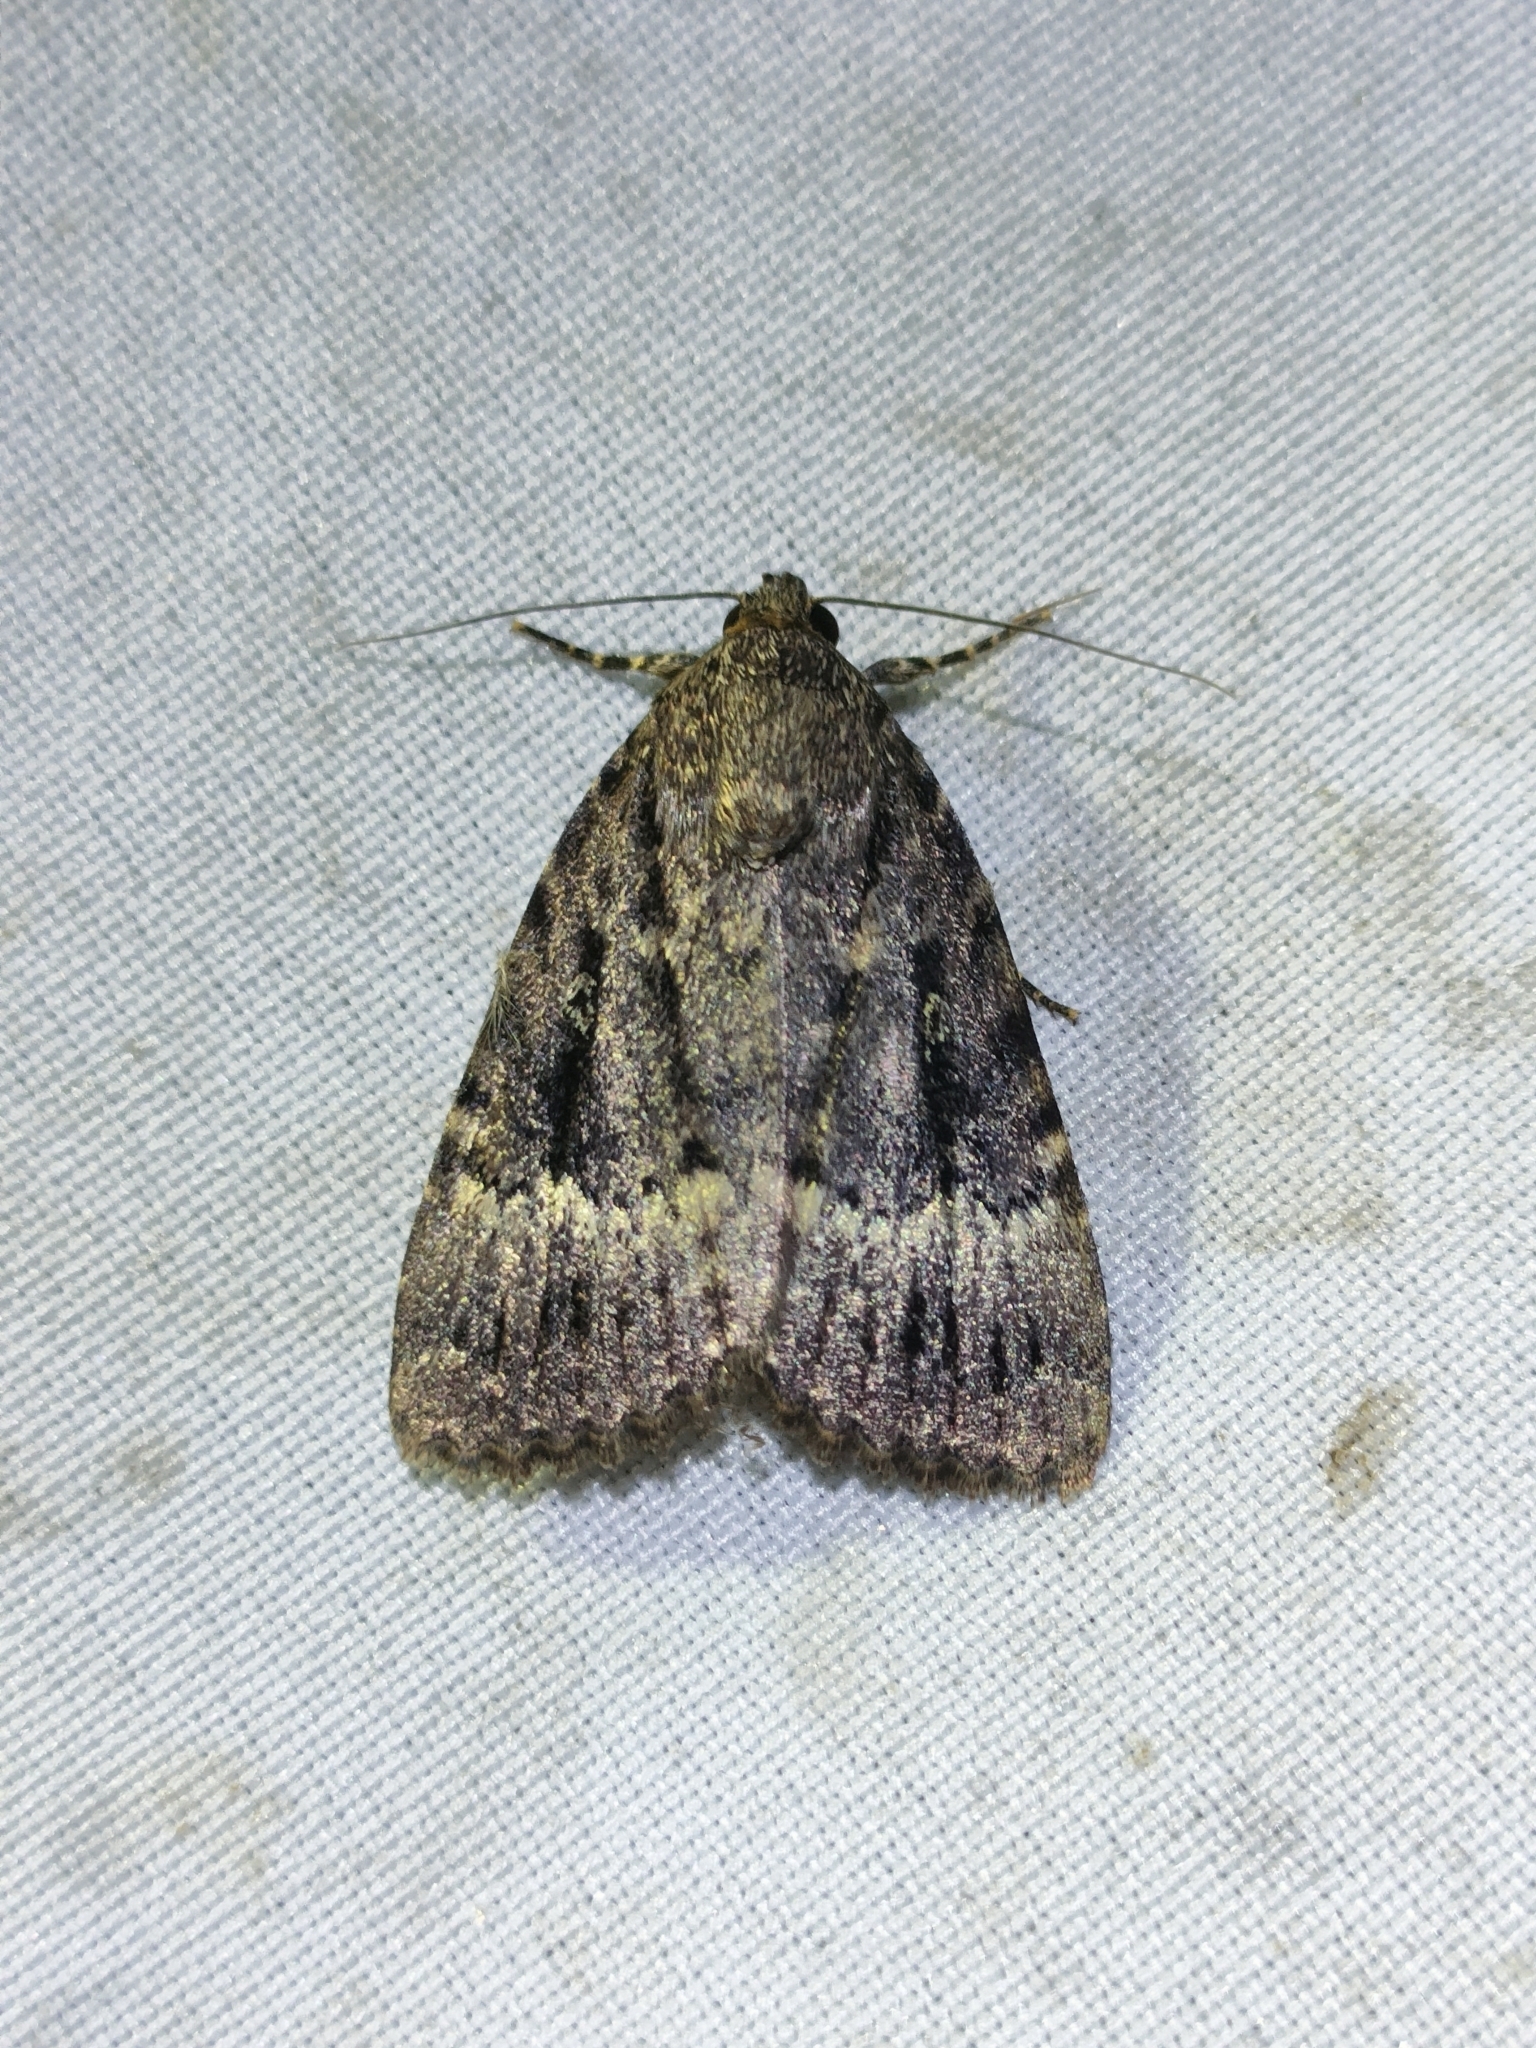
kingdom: Animalia
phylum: Arthropoda
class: Insecta
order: Lepidoptera
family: Noctuidae
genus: Amphipyra
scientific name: Amphipyra pyramidea
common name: Copper underwing
